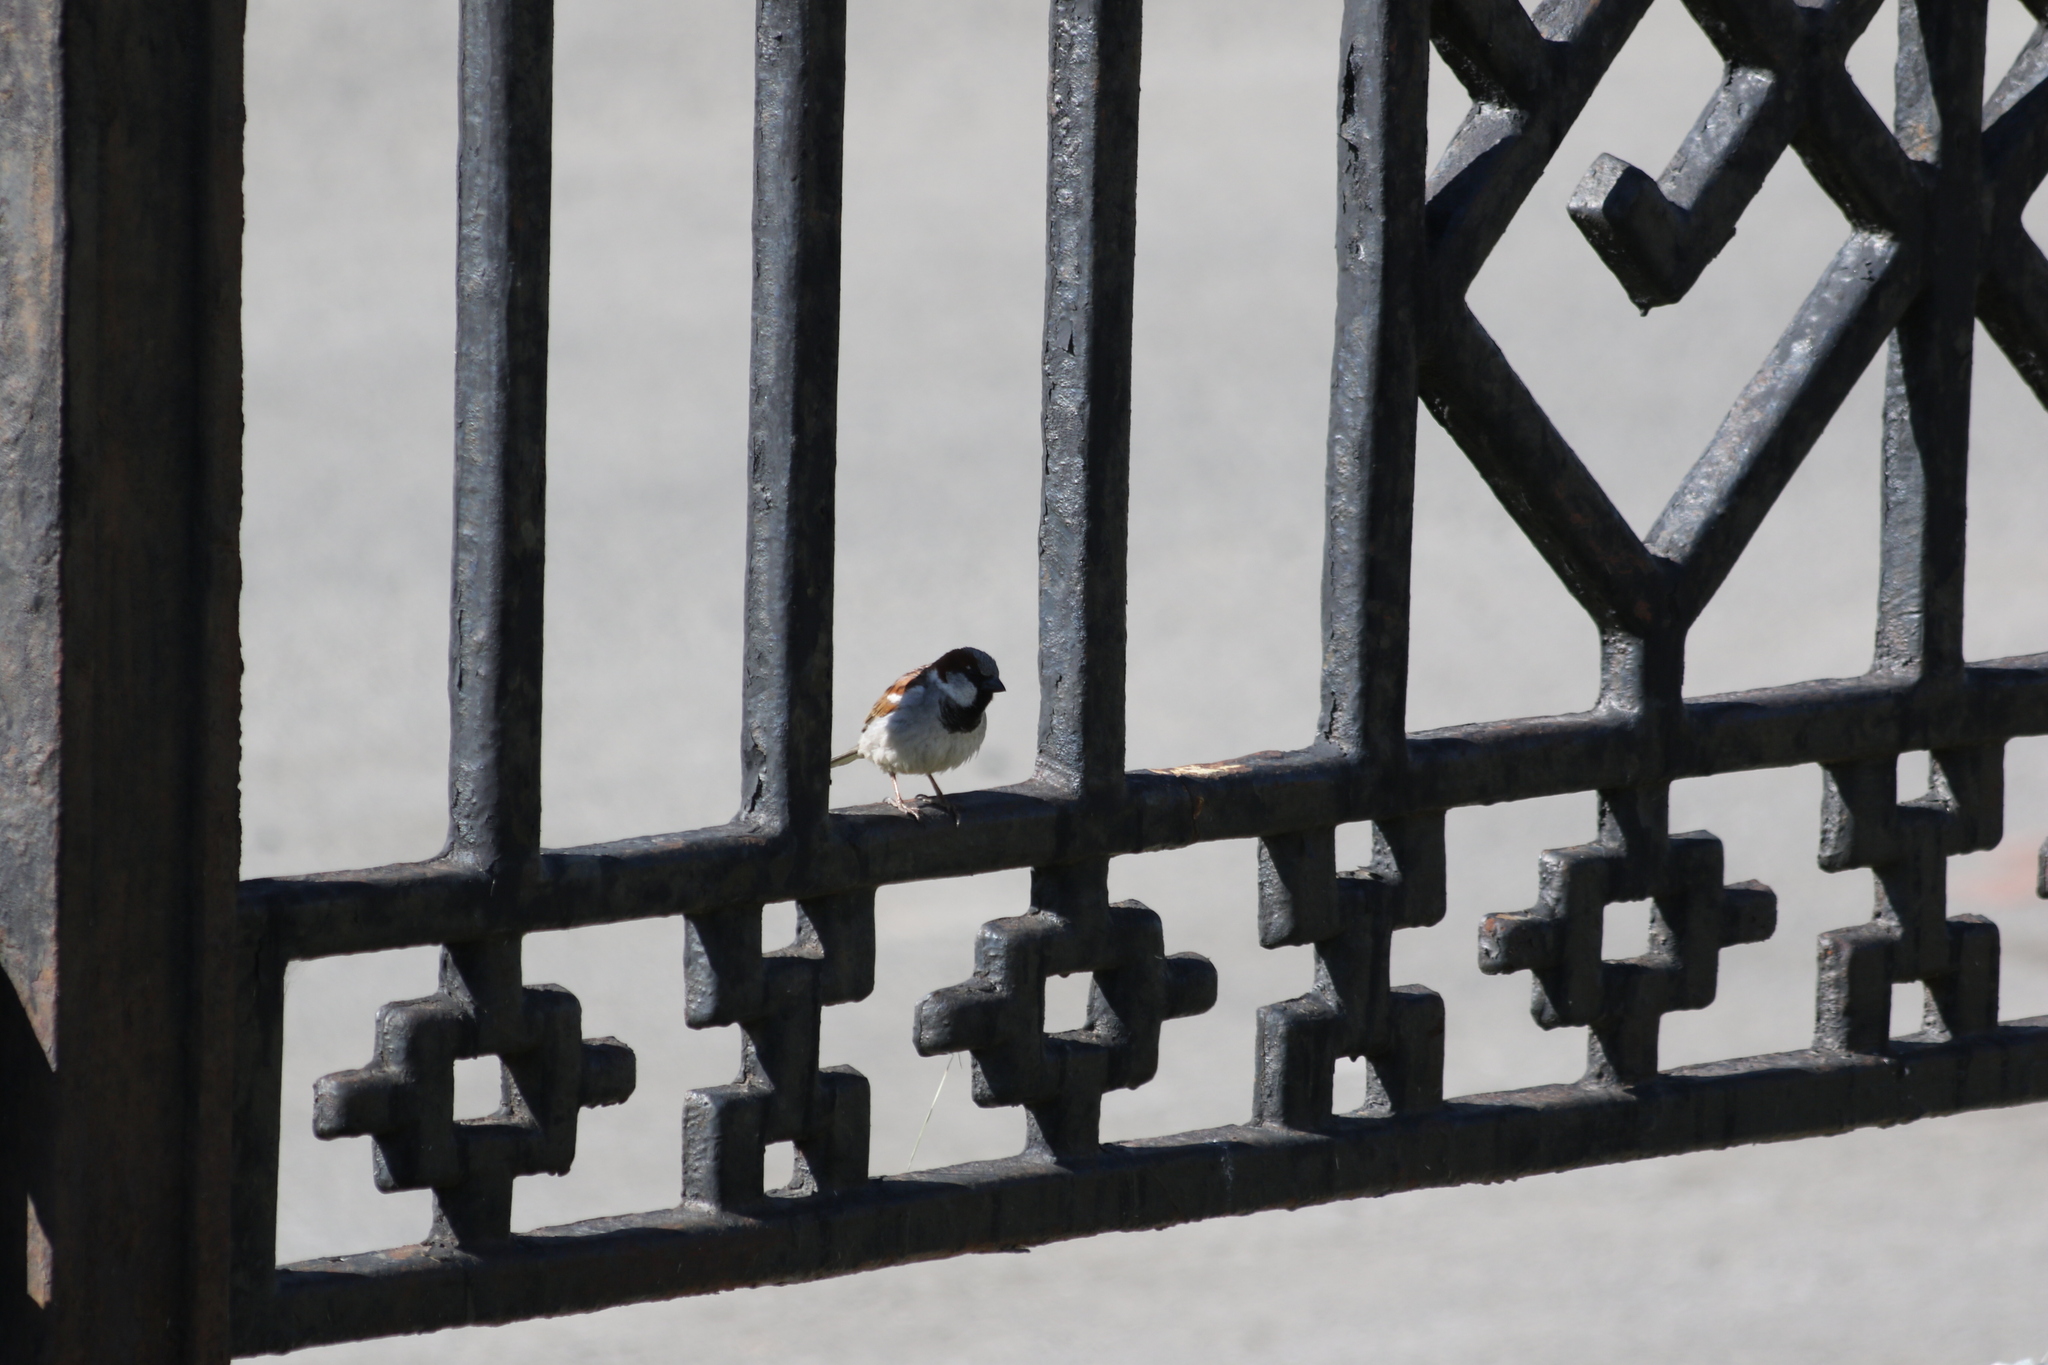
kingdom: Animalia
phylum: Chordata
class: Aves
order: Passeriformes
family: Passeridae
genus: Passer
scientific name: Passer domesticus
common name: House sparrow
